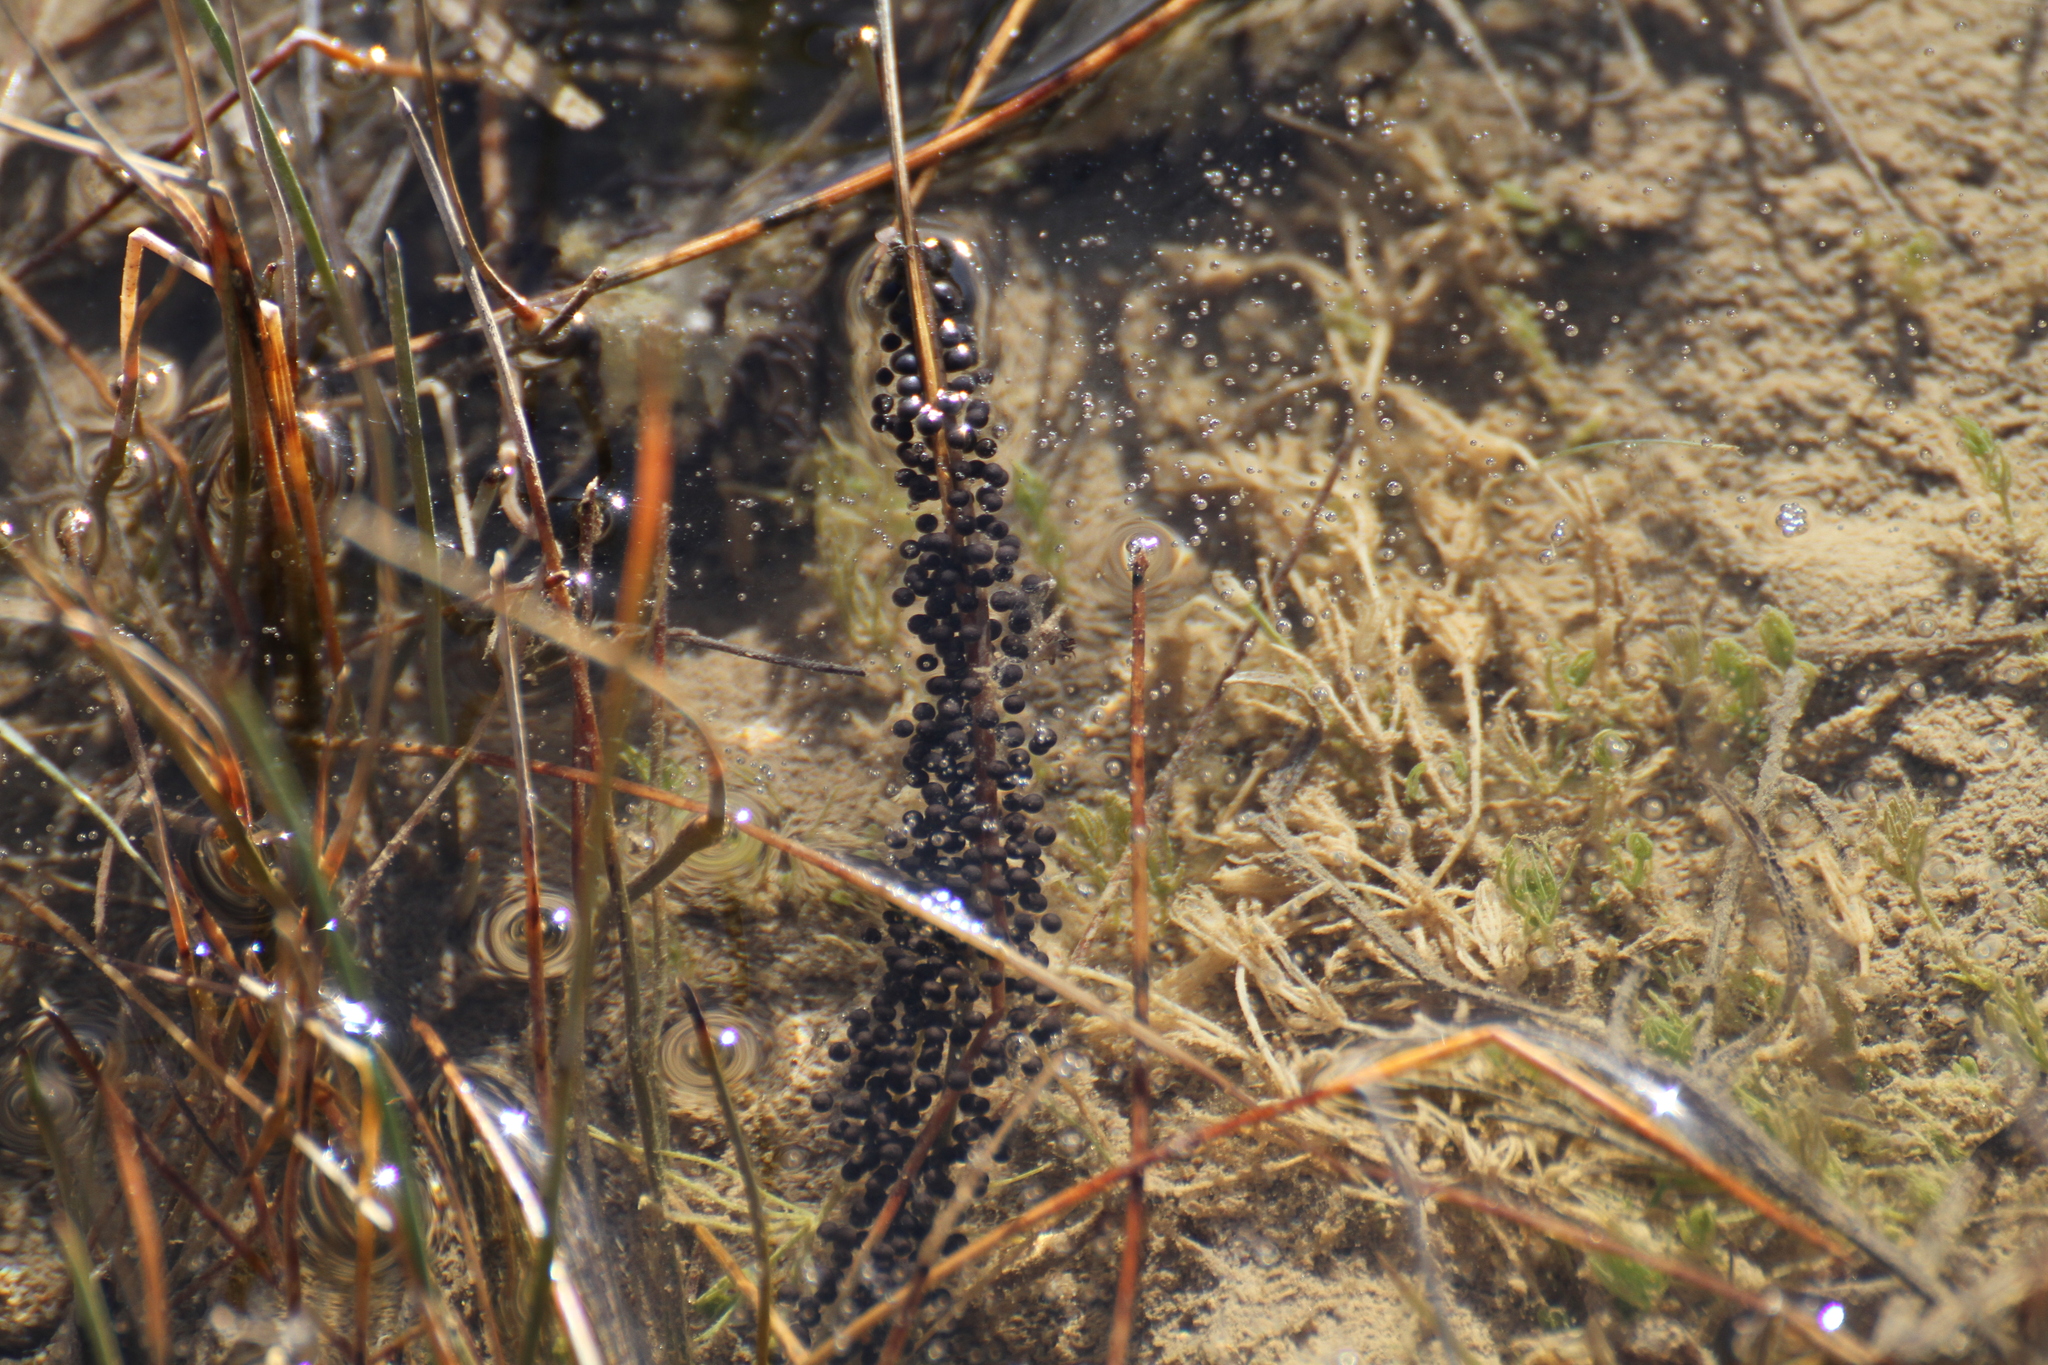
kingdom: Animalia
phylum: Chordata
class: Amphibia
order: Anura
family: Pelodytidae
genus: Pelodytes
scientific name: Pelodytes punctatus
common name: Parsley frog
